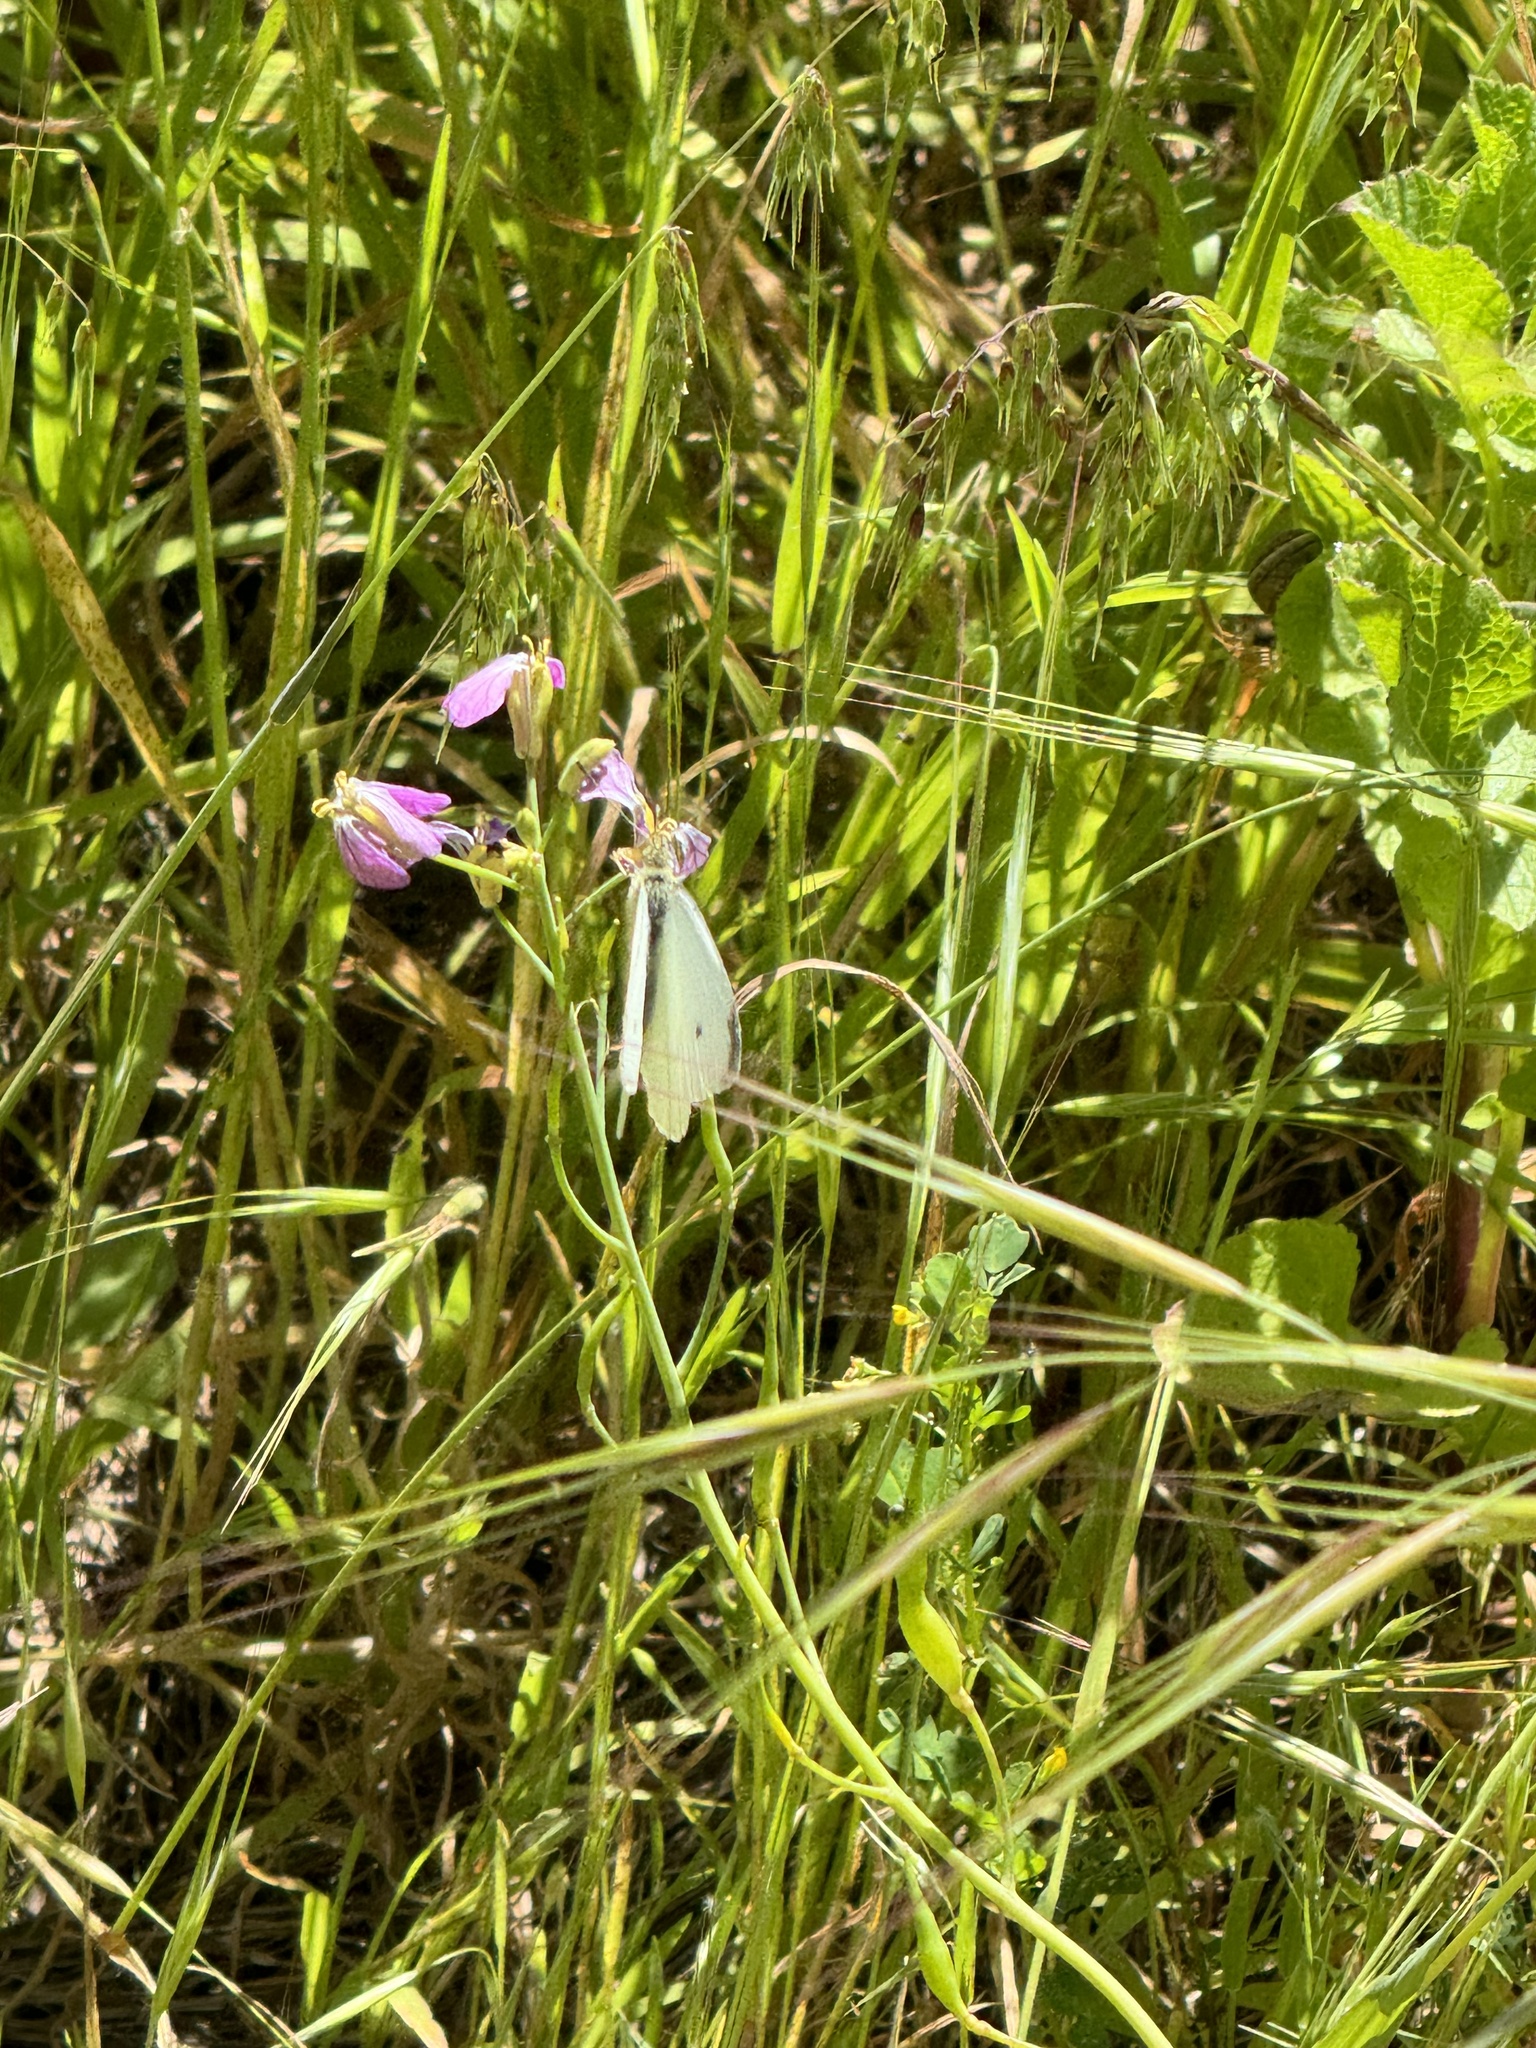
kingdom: Animalia
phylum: Arthropoda
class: Insecta
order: Lepidoptera
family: Pieridae
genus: Pieris
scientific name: Pieris rapae
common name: Small white
